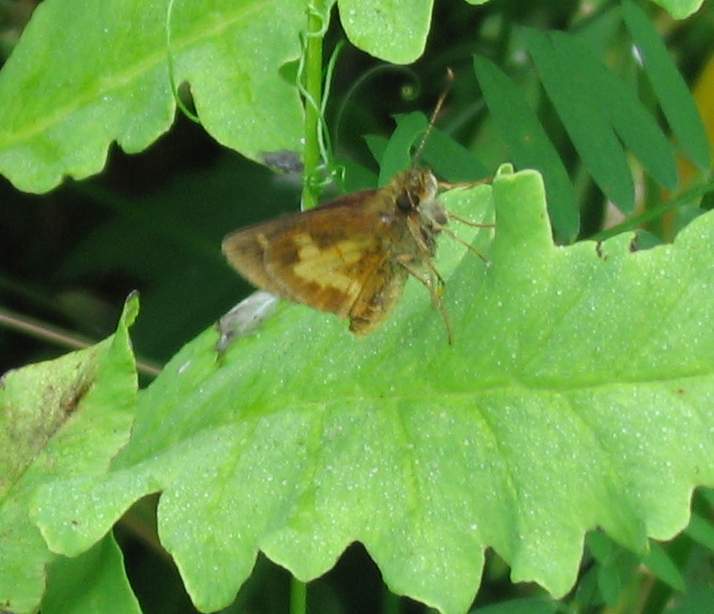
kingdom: Animalia
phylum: Arthropoda
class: Insecta
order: Lepidoptera
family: Hesperiidae
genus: Poanes
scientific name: Poanes massasoit
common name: Mulberrywing
